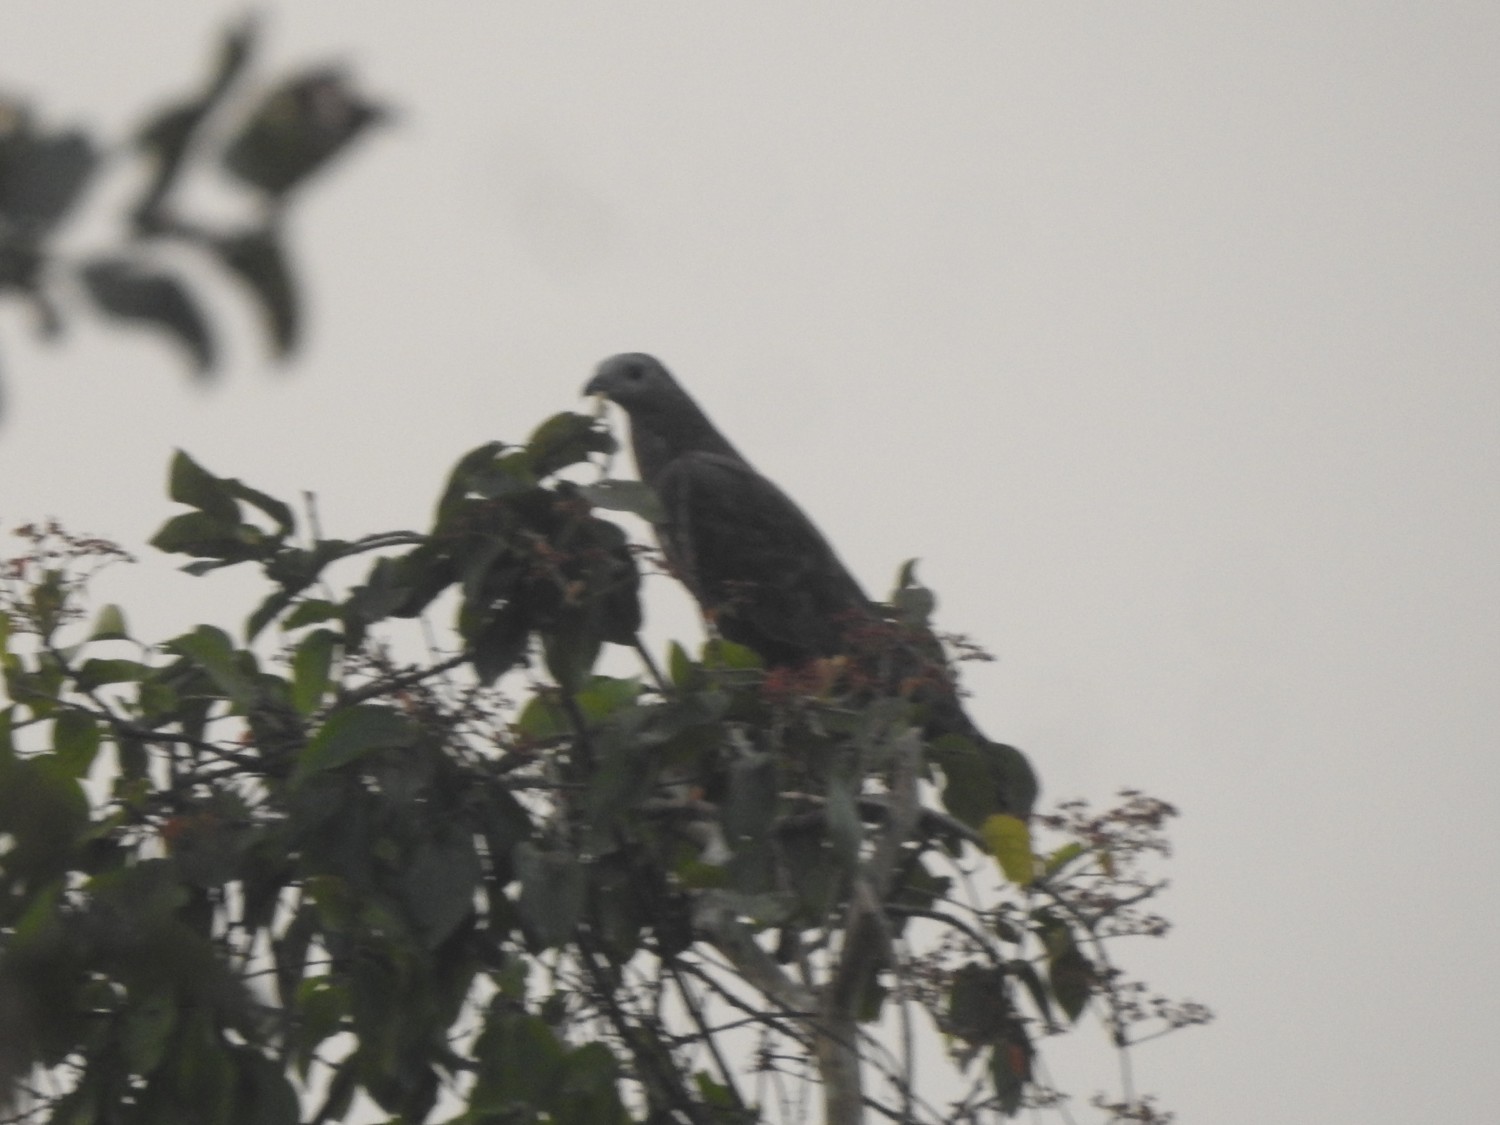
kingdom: Animalia
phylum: Chordata
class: Aves
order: Accipitriformes
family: Accipitridae
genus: Pernis
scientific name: Pernis ptilorhynchus
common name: Crested honey buzzard
